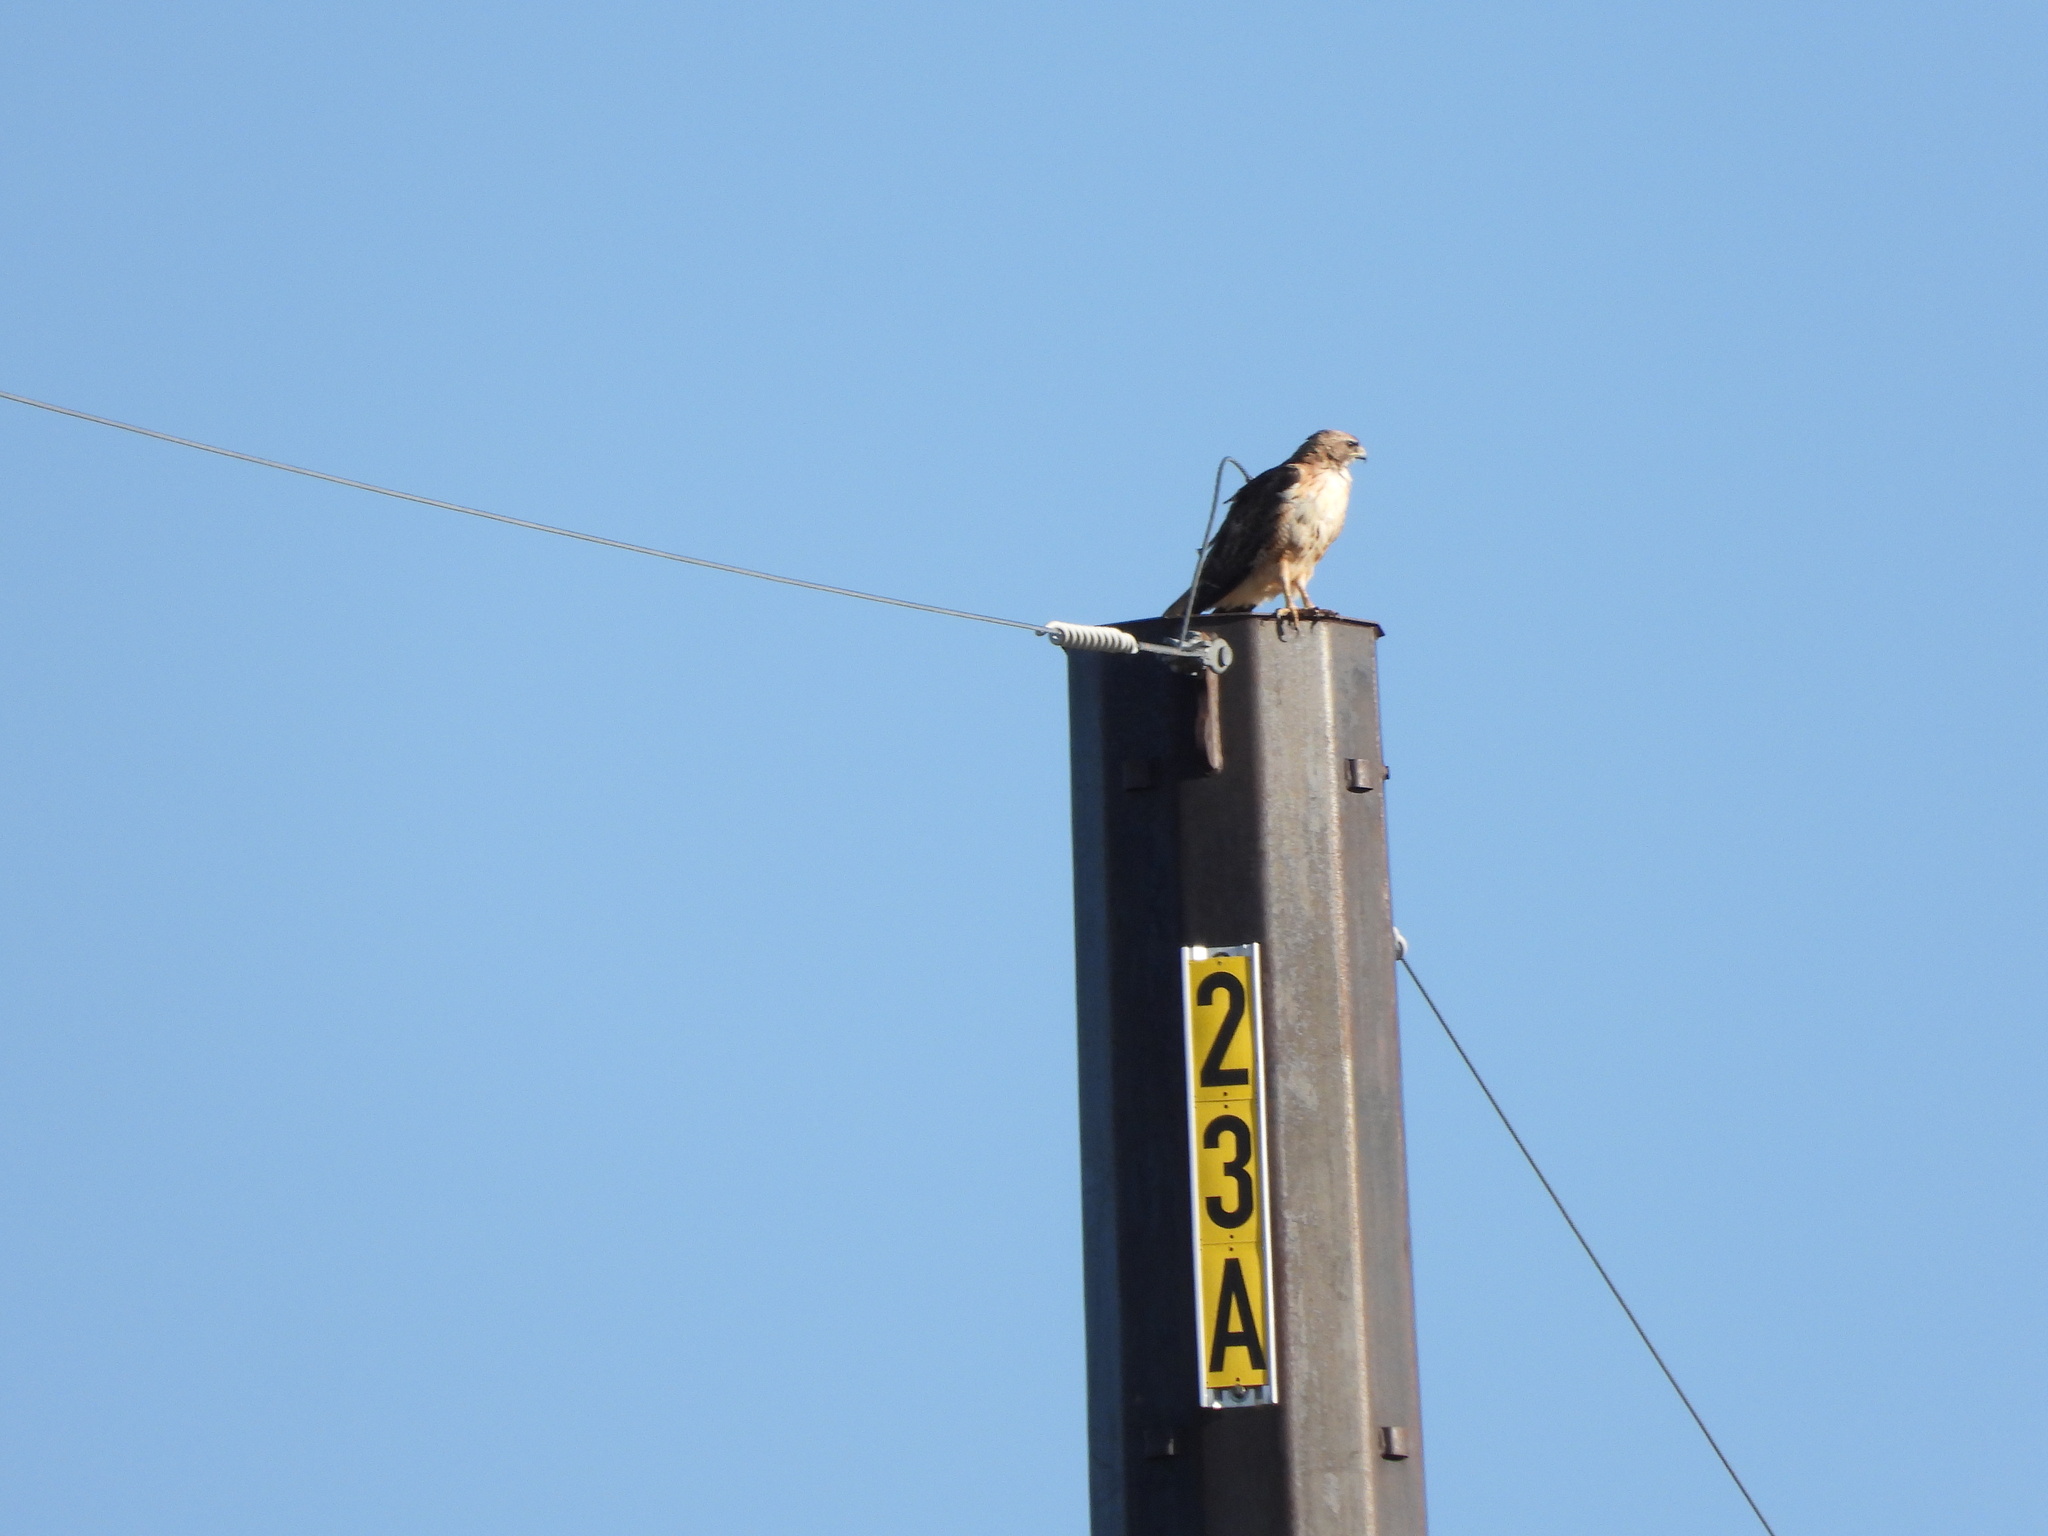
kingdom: Animalia
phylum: Chordata
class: Aves
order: Accipitriformes
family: Accipitridae
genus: Buteo
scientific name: Buteo jamaicensis
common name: Red-tailed hawk
